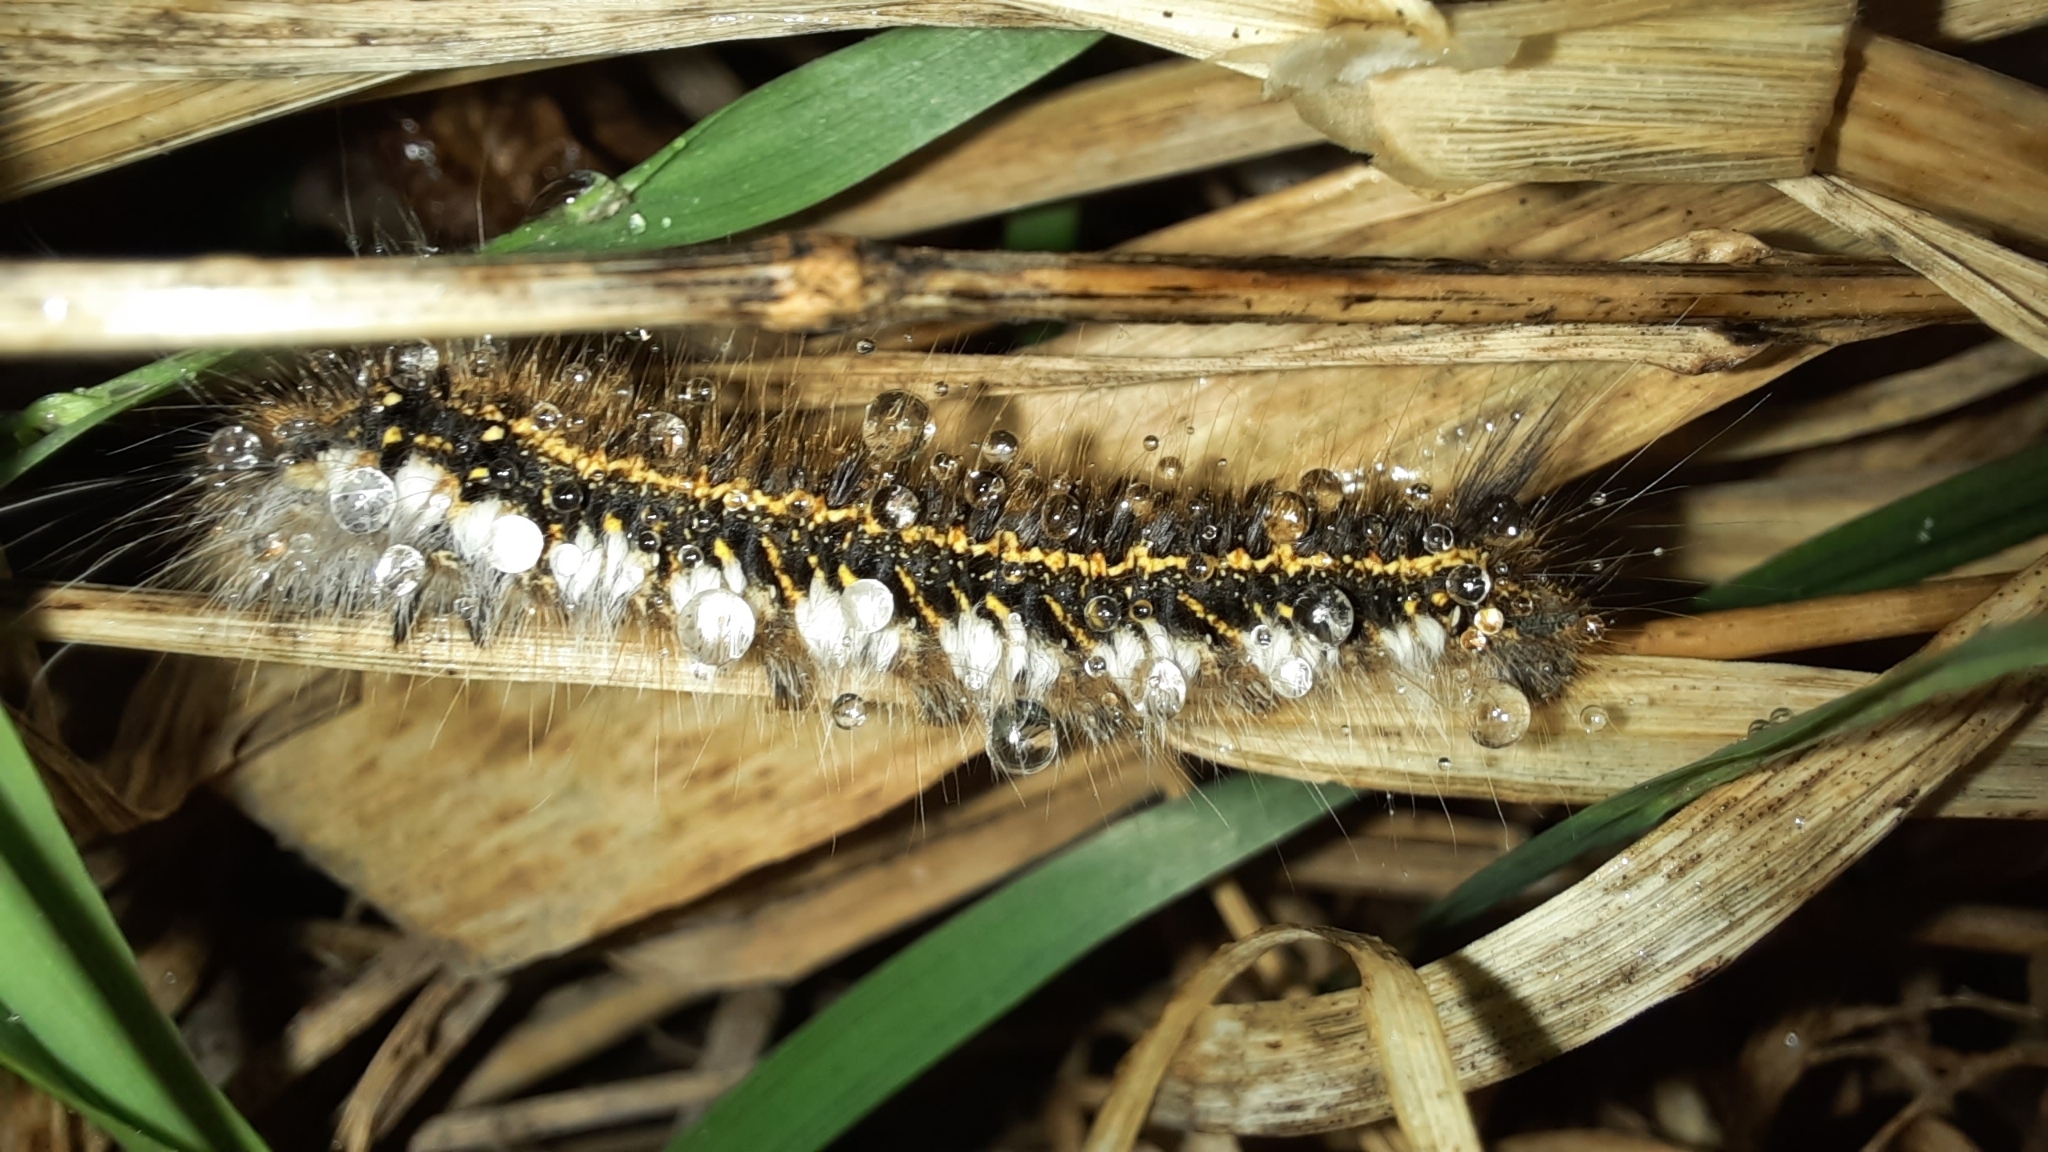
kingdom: Animalia
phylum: Arthropoda
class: Insecta
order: Lepidoptera
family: Lasiocampidae
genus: Euthrix
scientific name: Euthrix potatoria
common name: Drinker
